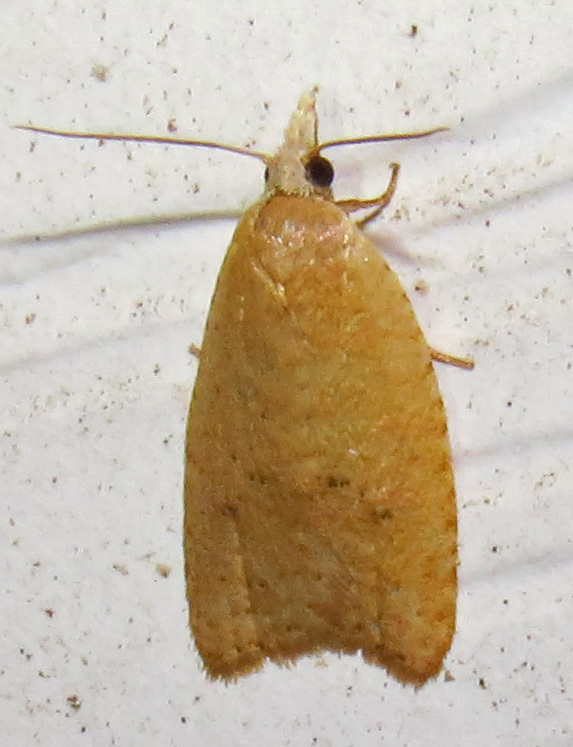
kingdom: Animalia
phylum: Arthropoda
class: Insecta
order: Lepidoptera
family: Tortricidae
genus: Sparganothoides
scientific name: Sparganothoides lentiginosana
